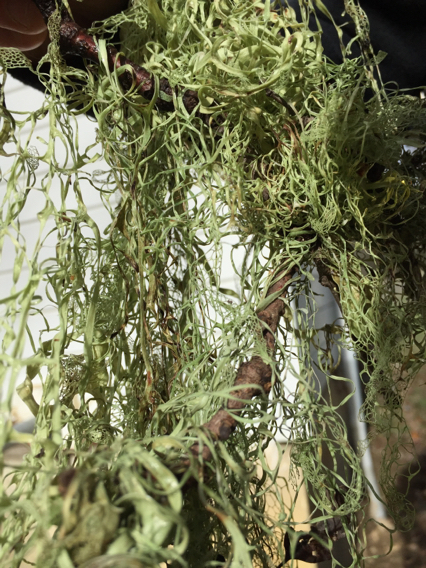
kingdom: Fungi
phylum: Ascomycota
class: Lecanoromycetes
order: Lecanorales
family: Ramalinaceae
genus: Ramalina
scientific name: Ramalina menziesii
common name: Lace lichen
